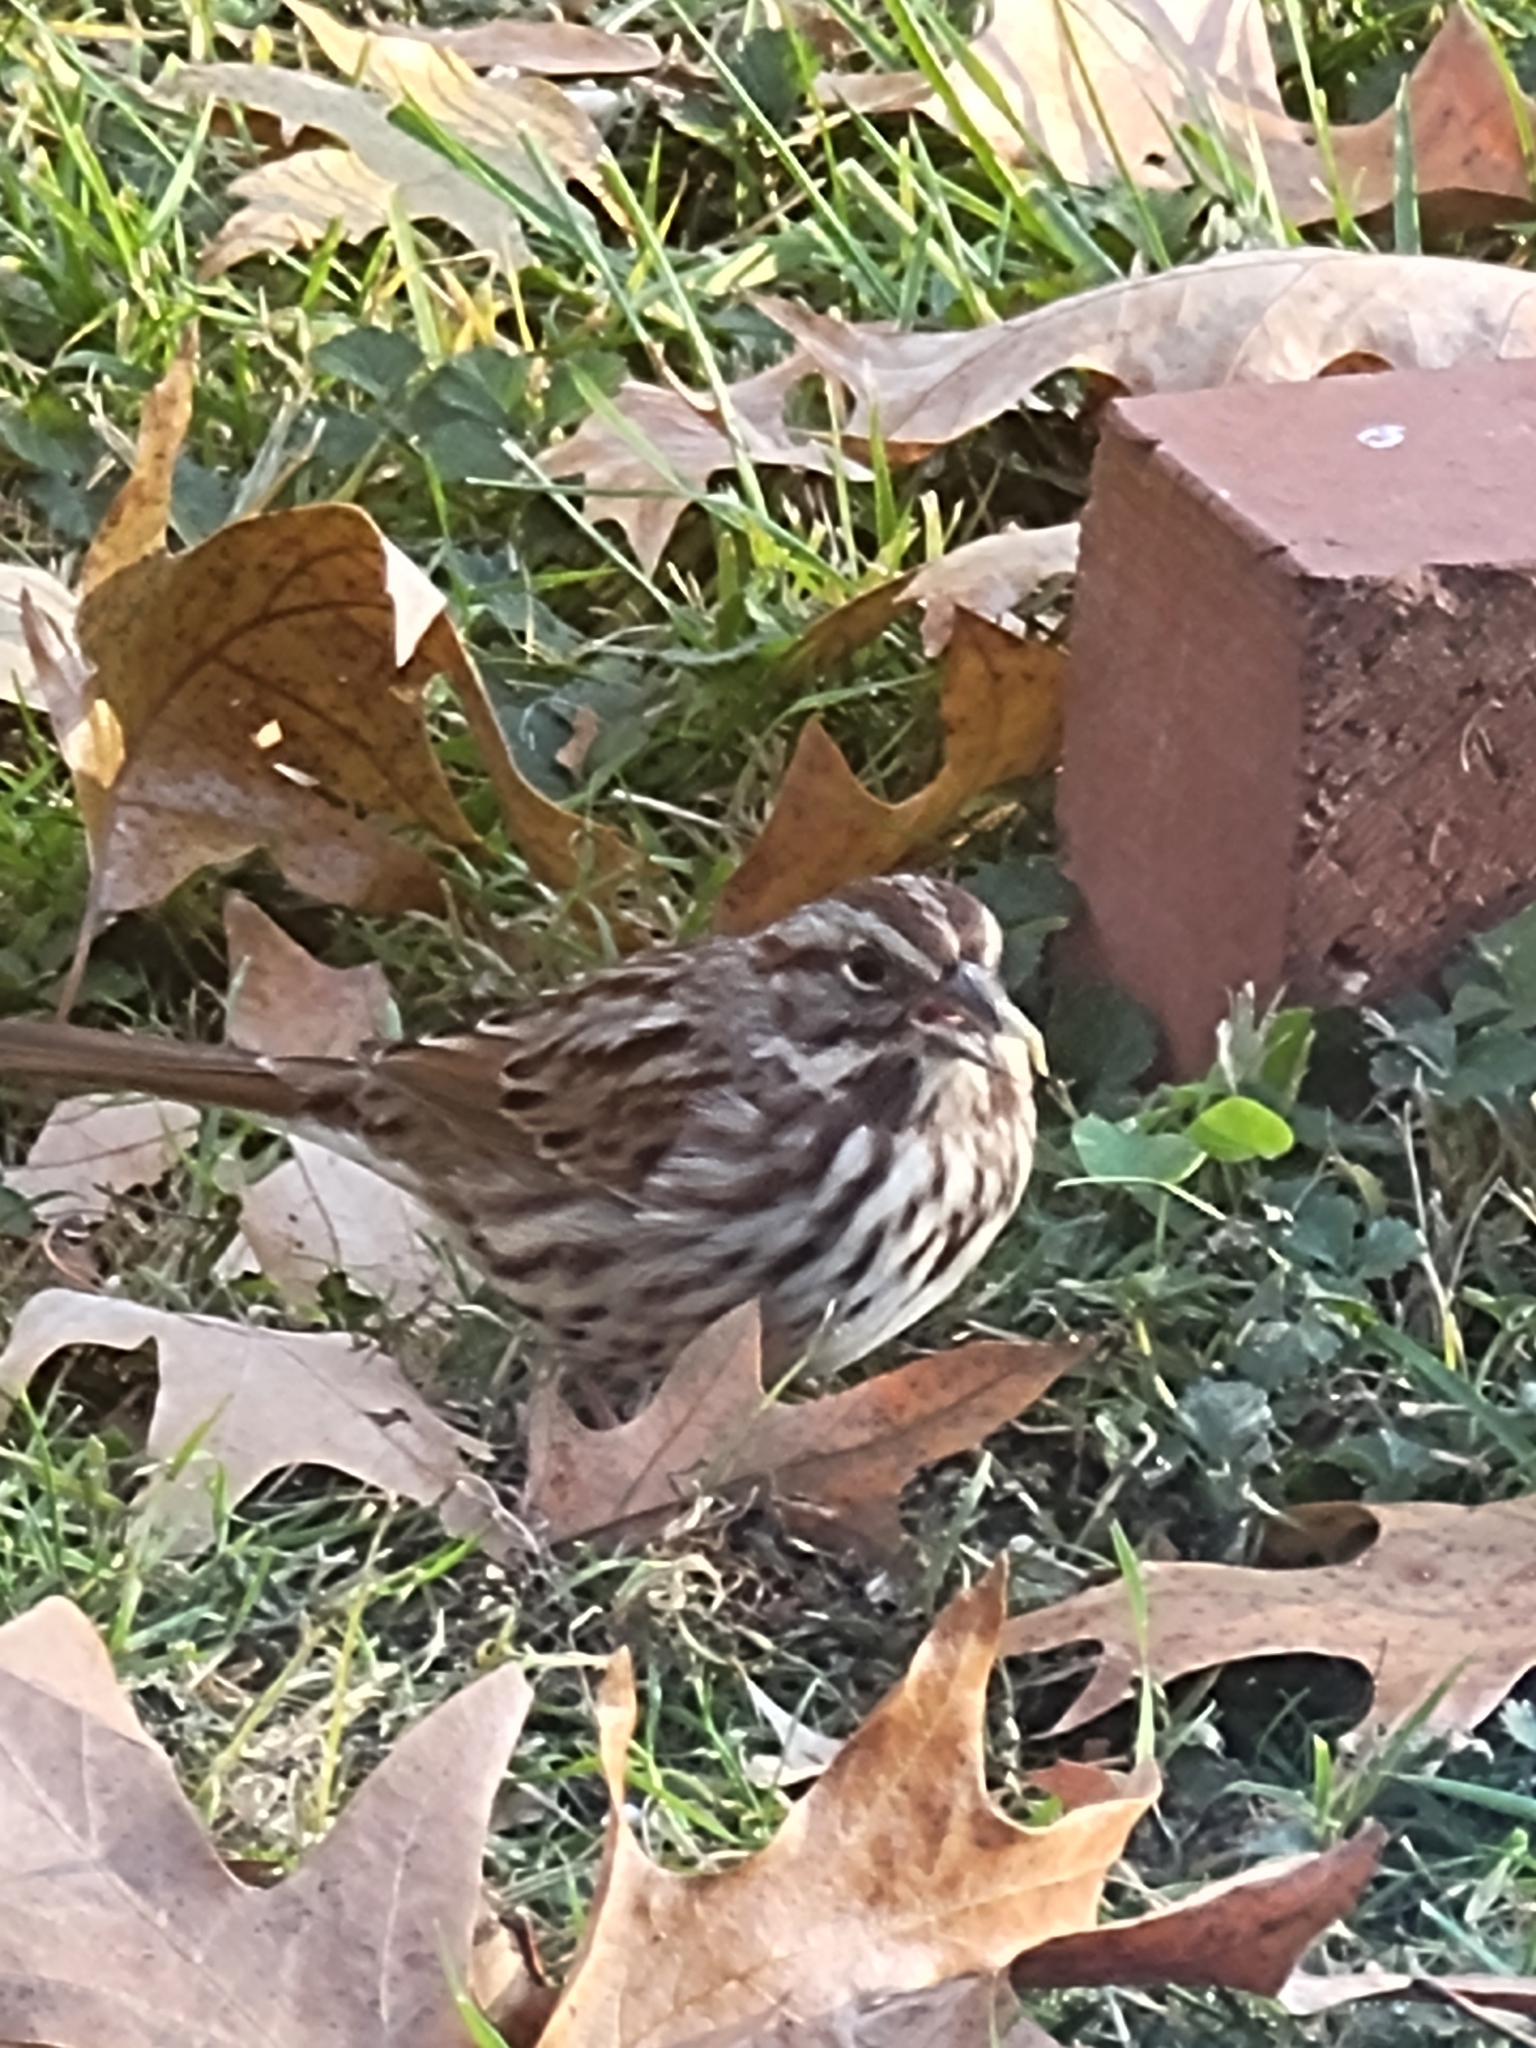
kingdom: Animalia
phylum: Chordata
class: Aves
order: Passeriformes
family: Passerellidae
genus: Melospiza
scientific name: Melospiza melodia
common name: Song sparrow
